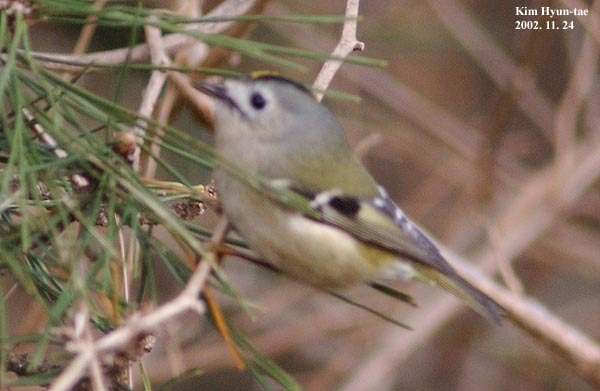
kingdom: Animalia
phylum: Chordata
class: Aves
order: Passeriformes
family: Regulidae
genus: Regulus
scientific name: Regulus regulus
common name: Goldcrest
